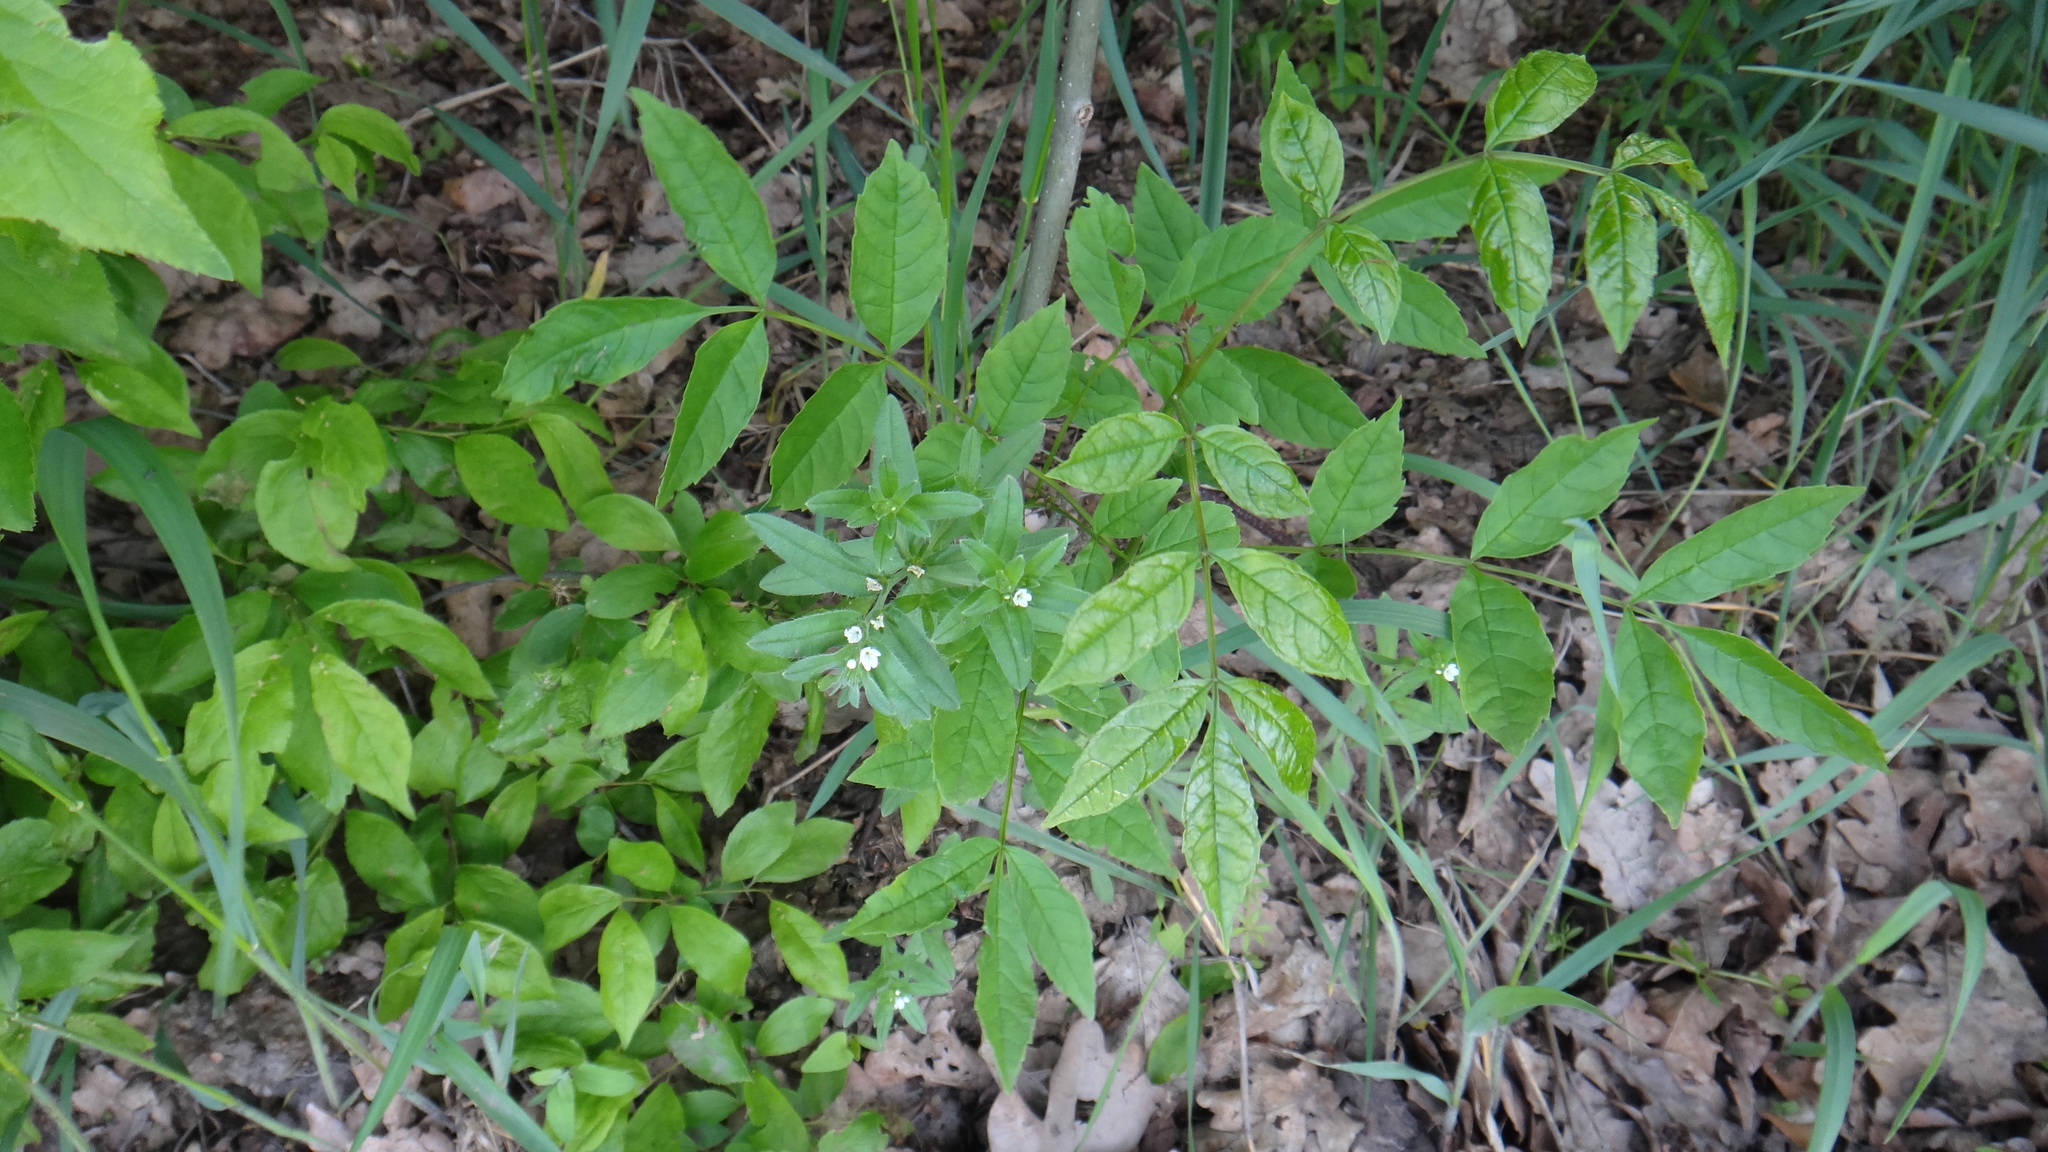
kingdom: Plantae
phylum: Tracheophyta
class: Magnoliopsida
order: Boraginales
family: Boraginaceae
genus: Buglossoides
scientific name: Buglossoides arvensis
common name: Corn gromwell
